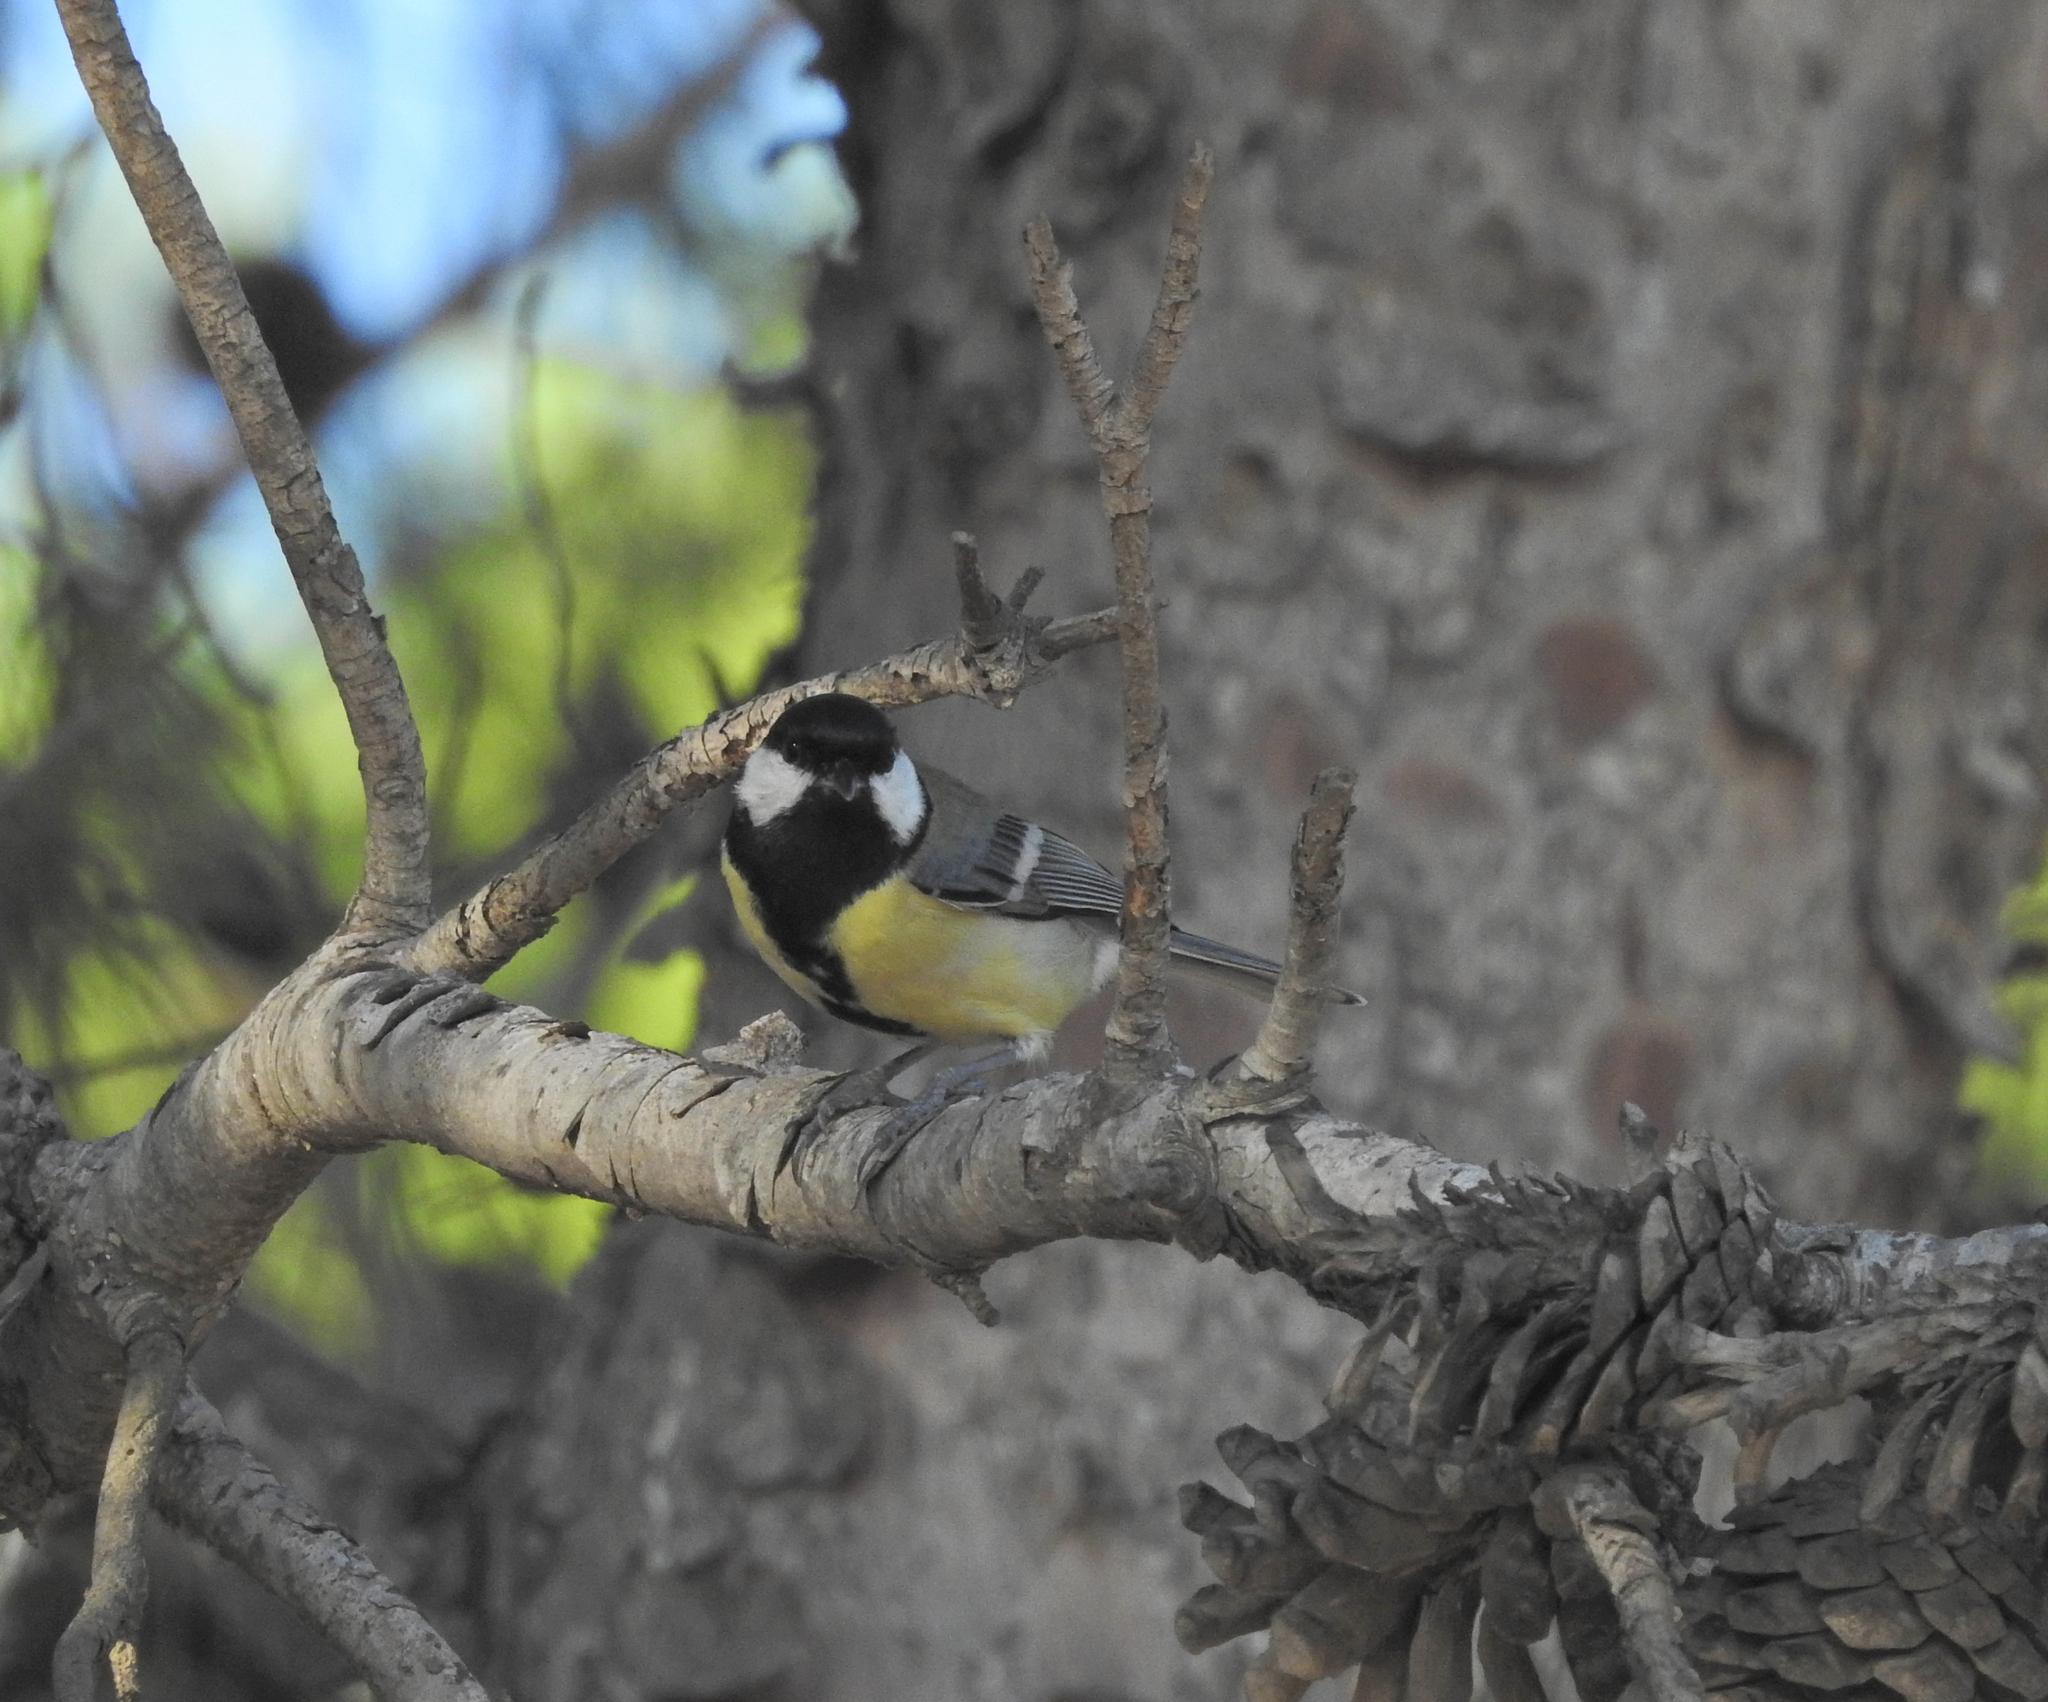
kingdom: Animalia
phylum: Chordata
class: Aves
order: Passeriformes
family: Paridae
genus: Parus
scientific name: Parus major
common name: Great tit
